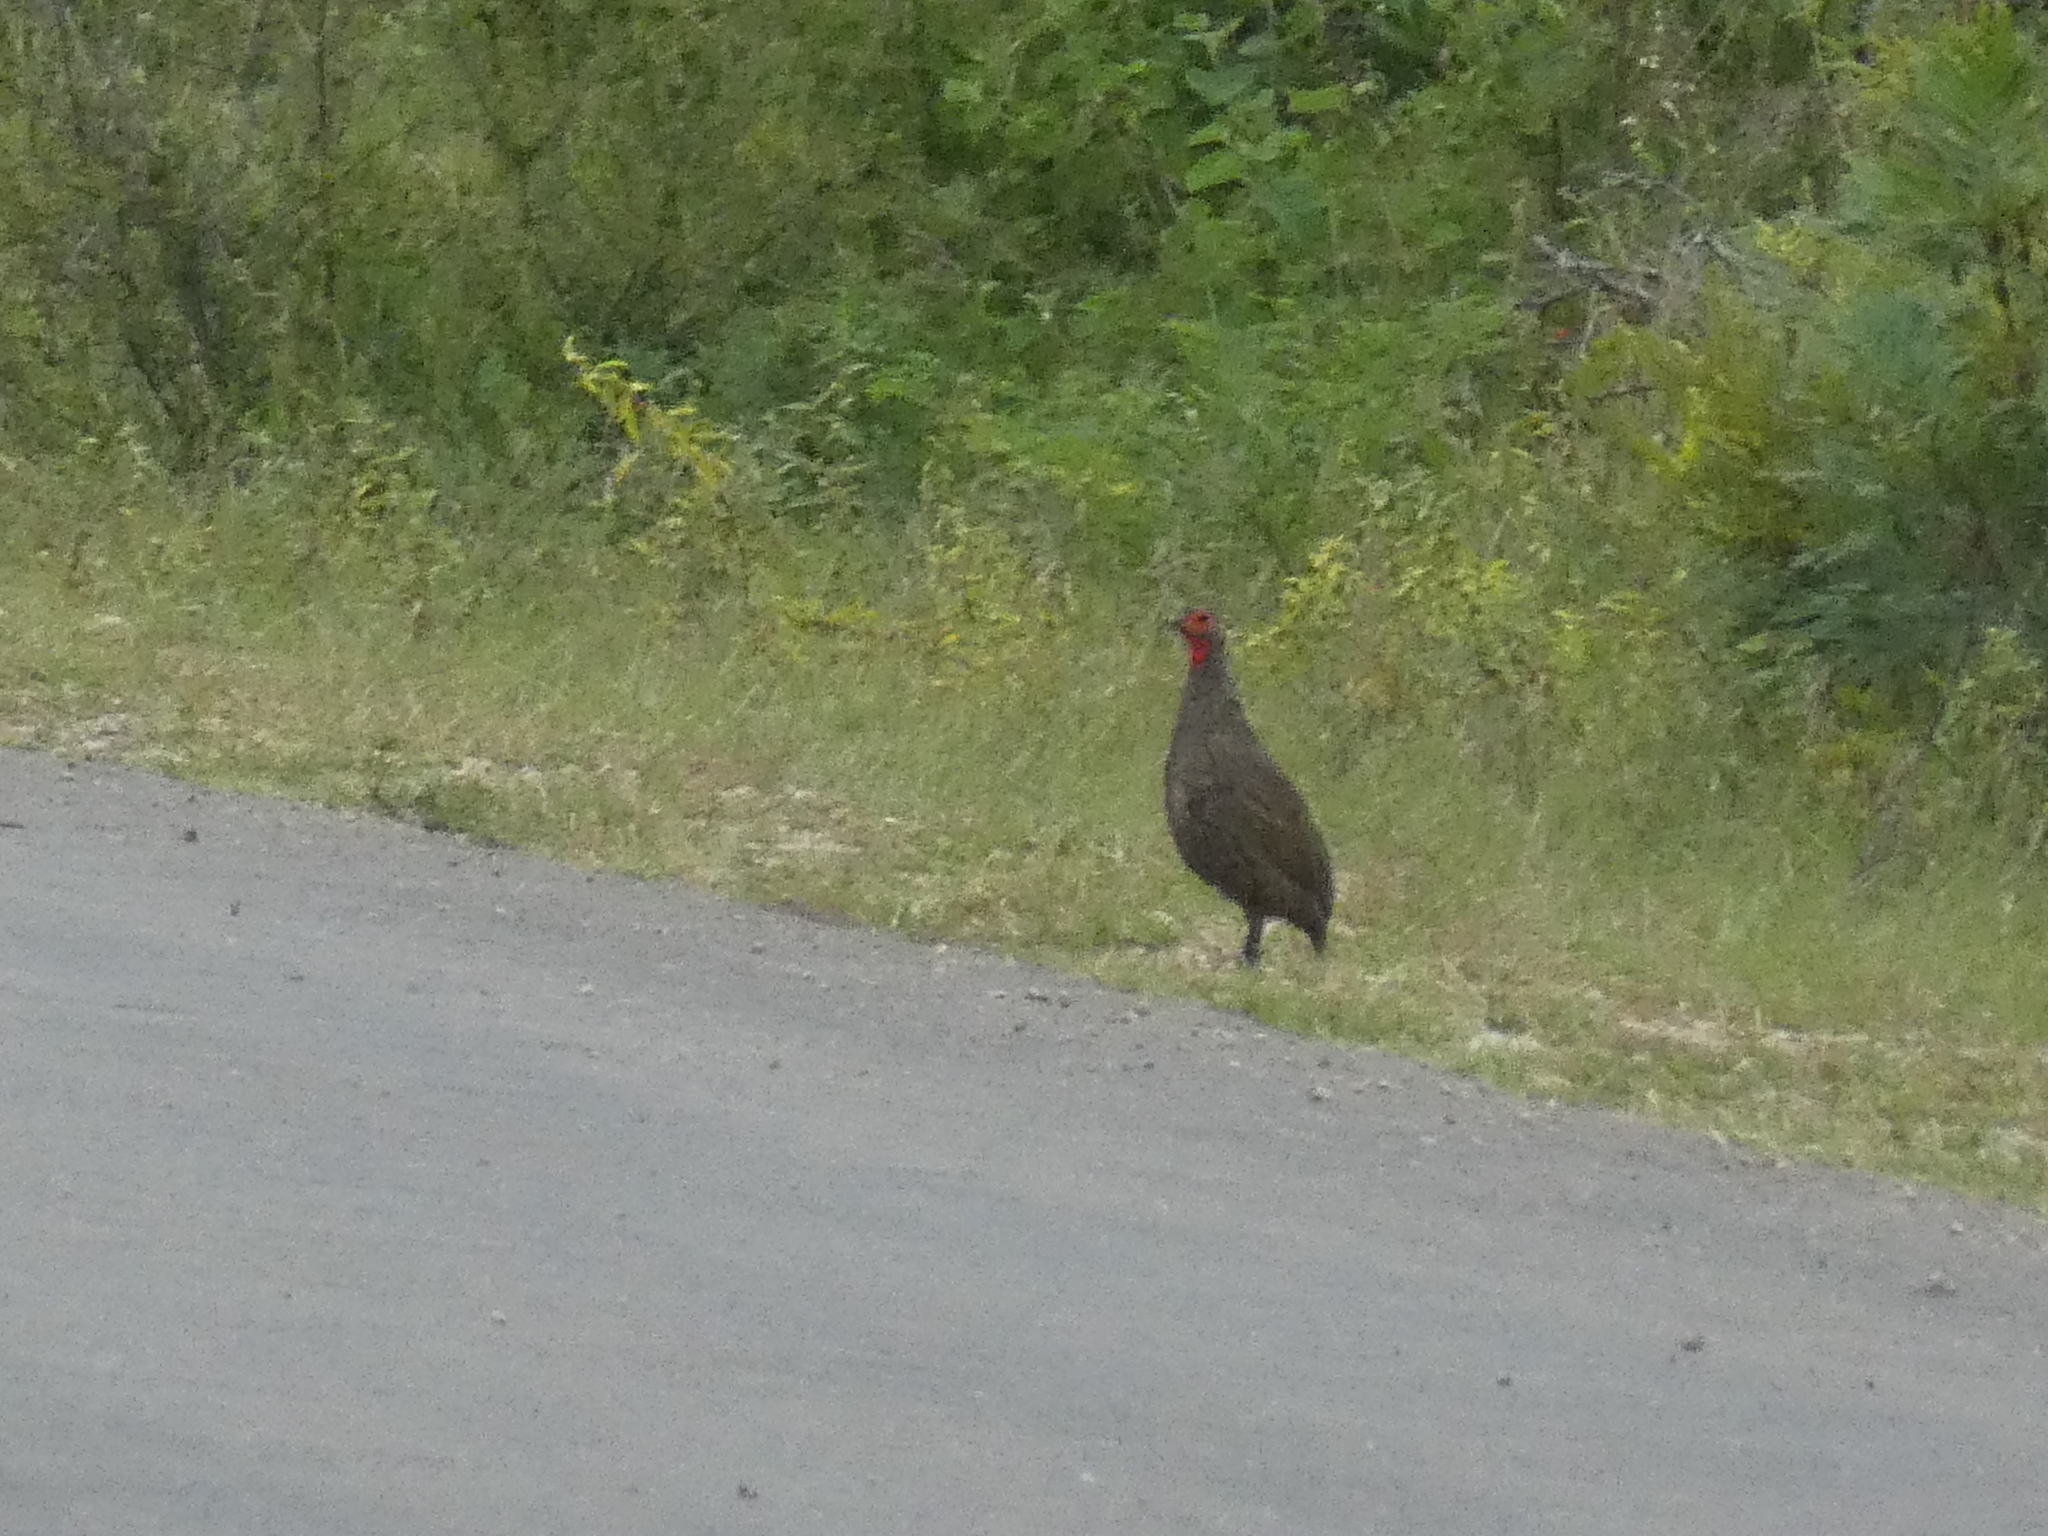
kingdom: Animalia
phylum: Chordata
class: Aves
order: Galliformes
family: Phasianidae
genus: Pternistis
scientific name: Pternistis swainsonii
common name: Swainson's spurfowl
